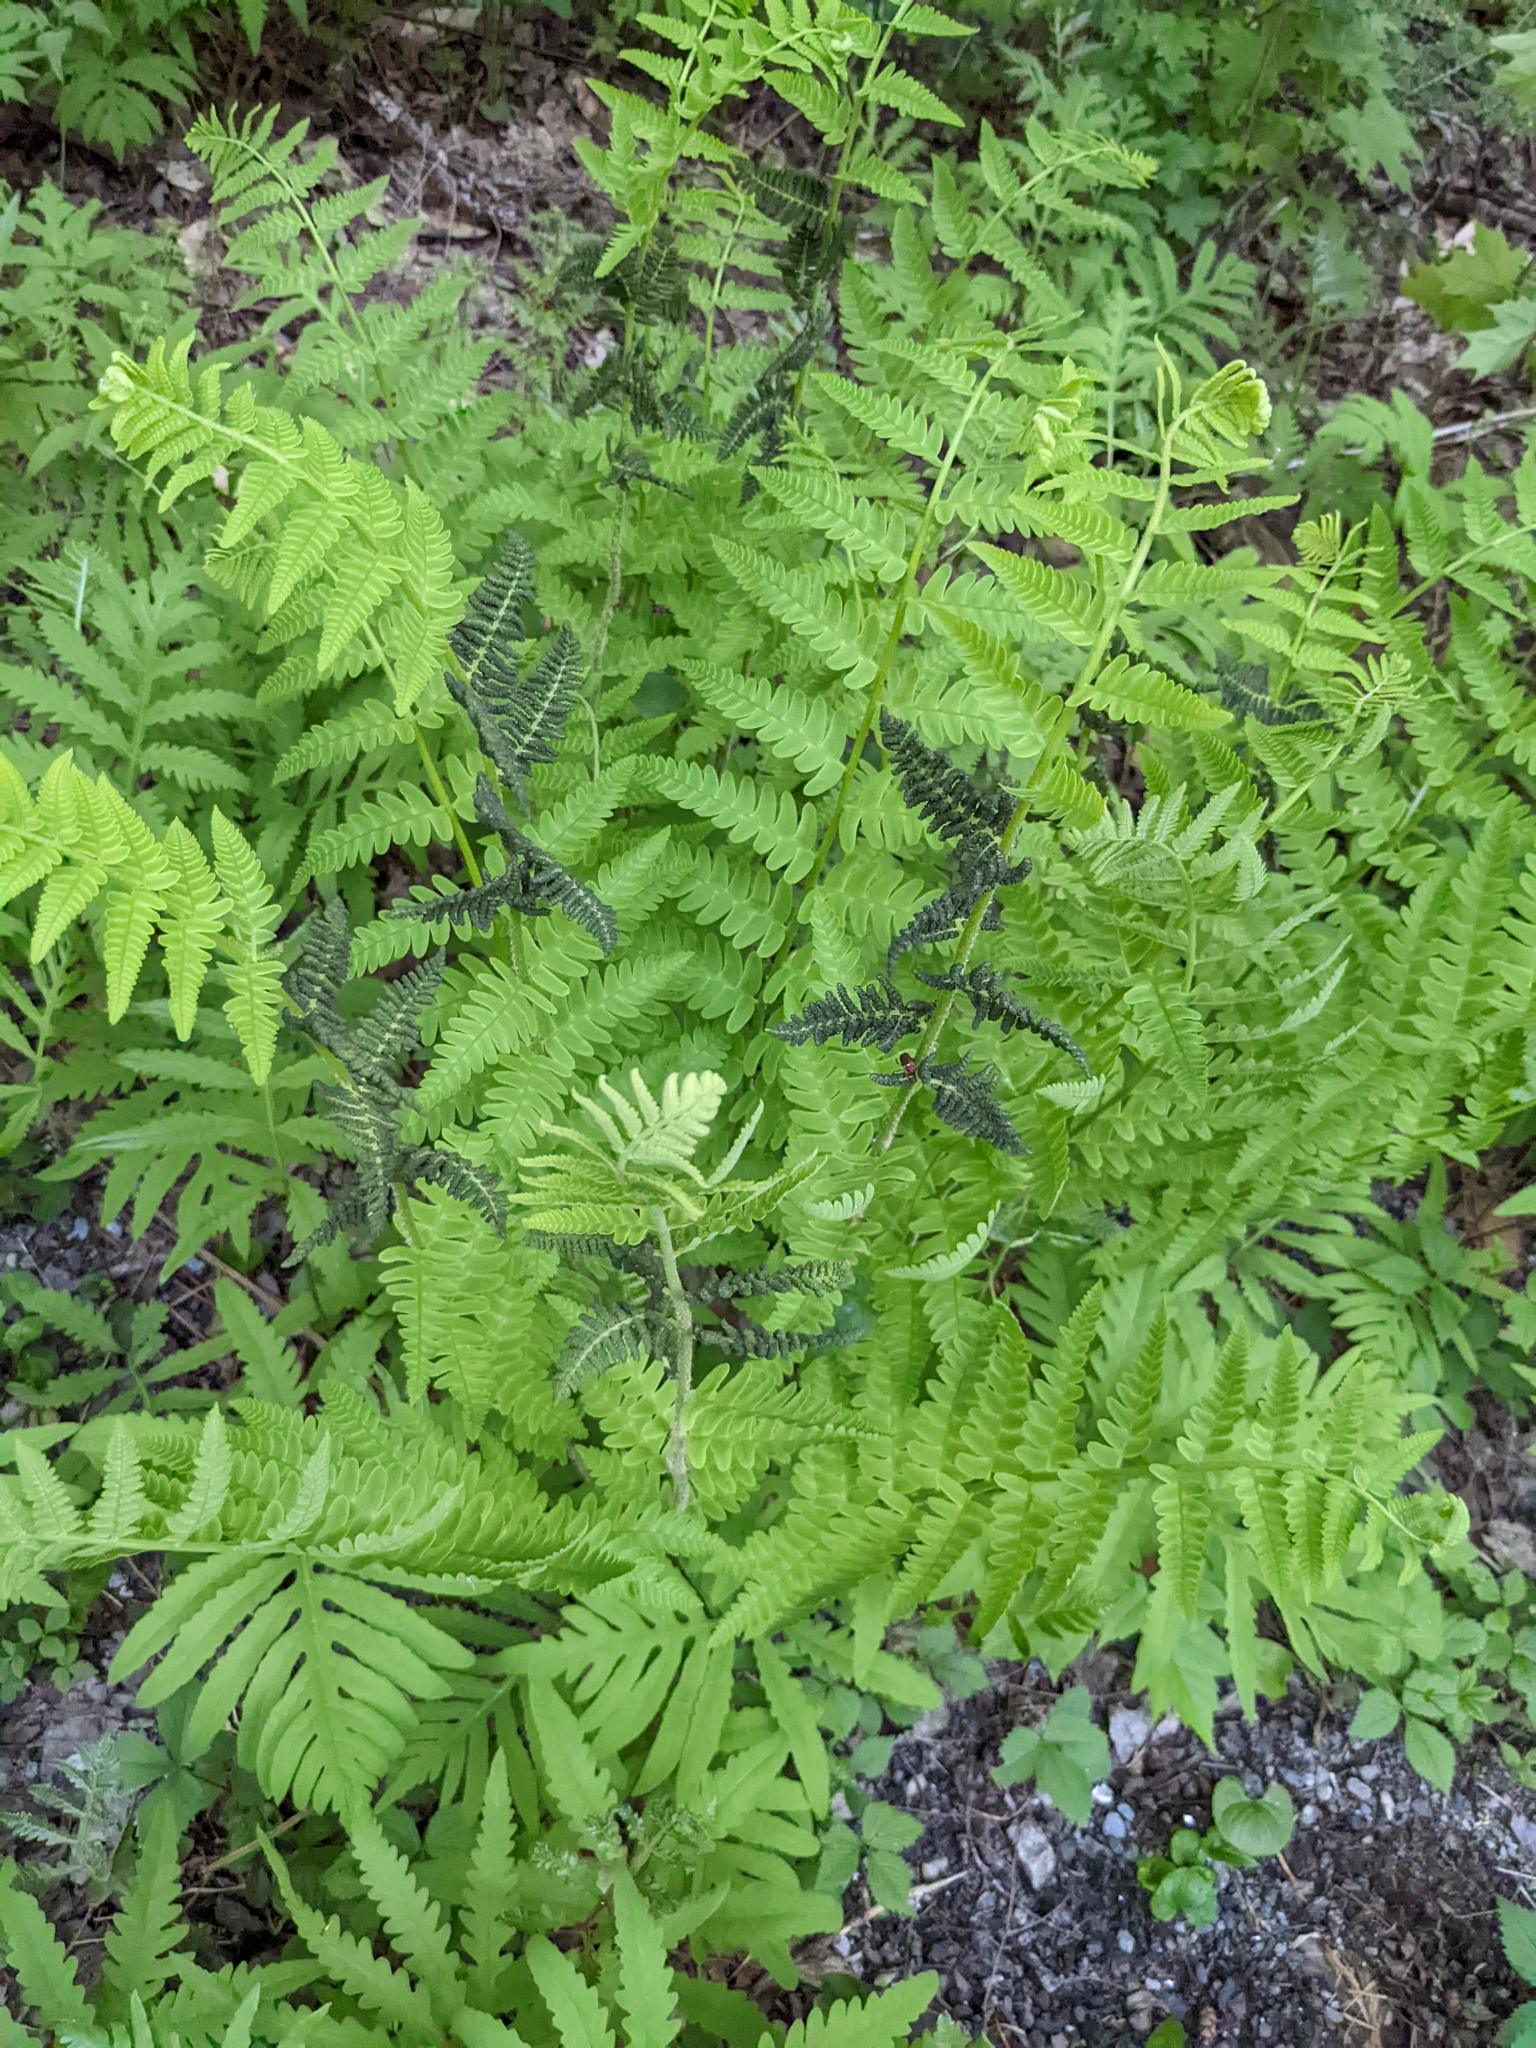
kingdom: Plantae
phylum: Tracheophyta
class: Polypodiopsida
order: Osmundales
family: Osmundaceae
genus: Claytosmunda
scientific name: Claytosmunda claytoniana
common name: Clayton's fern
